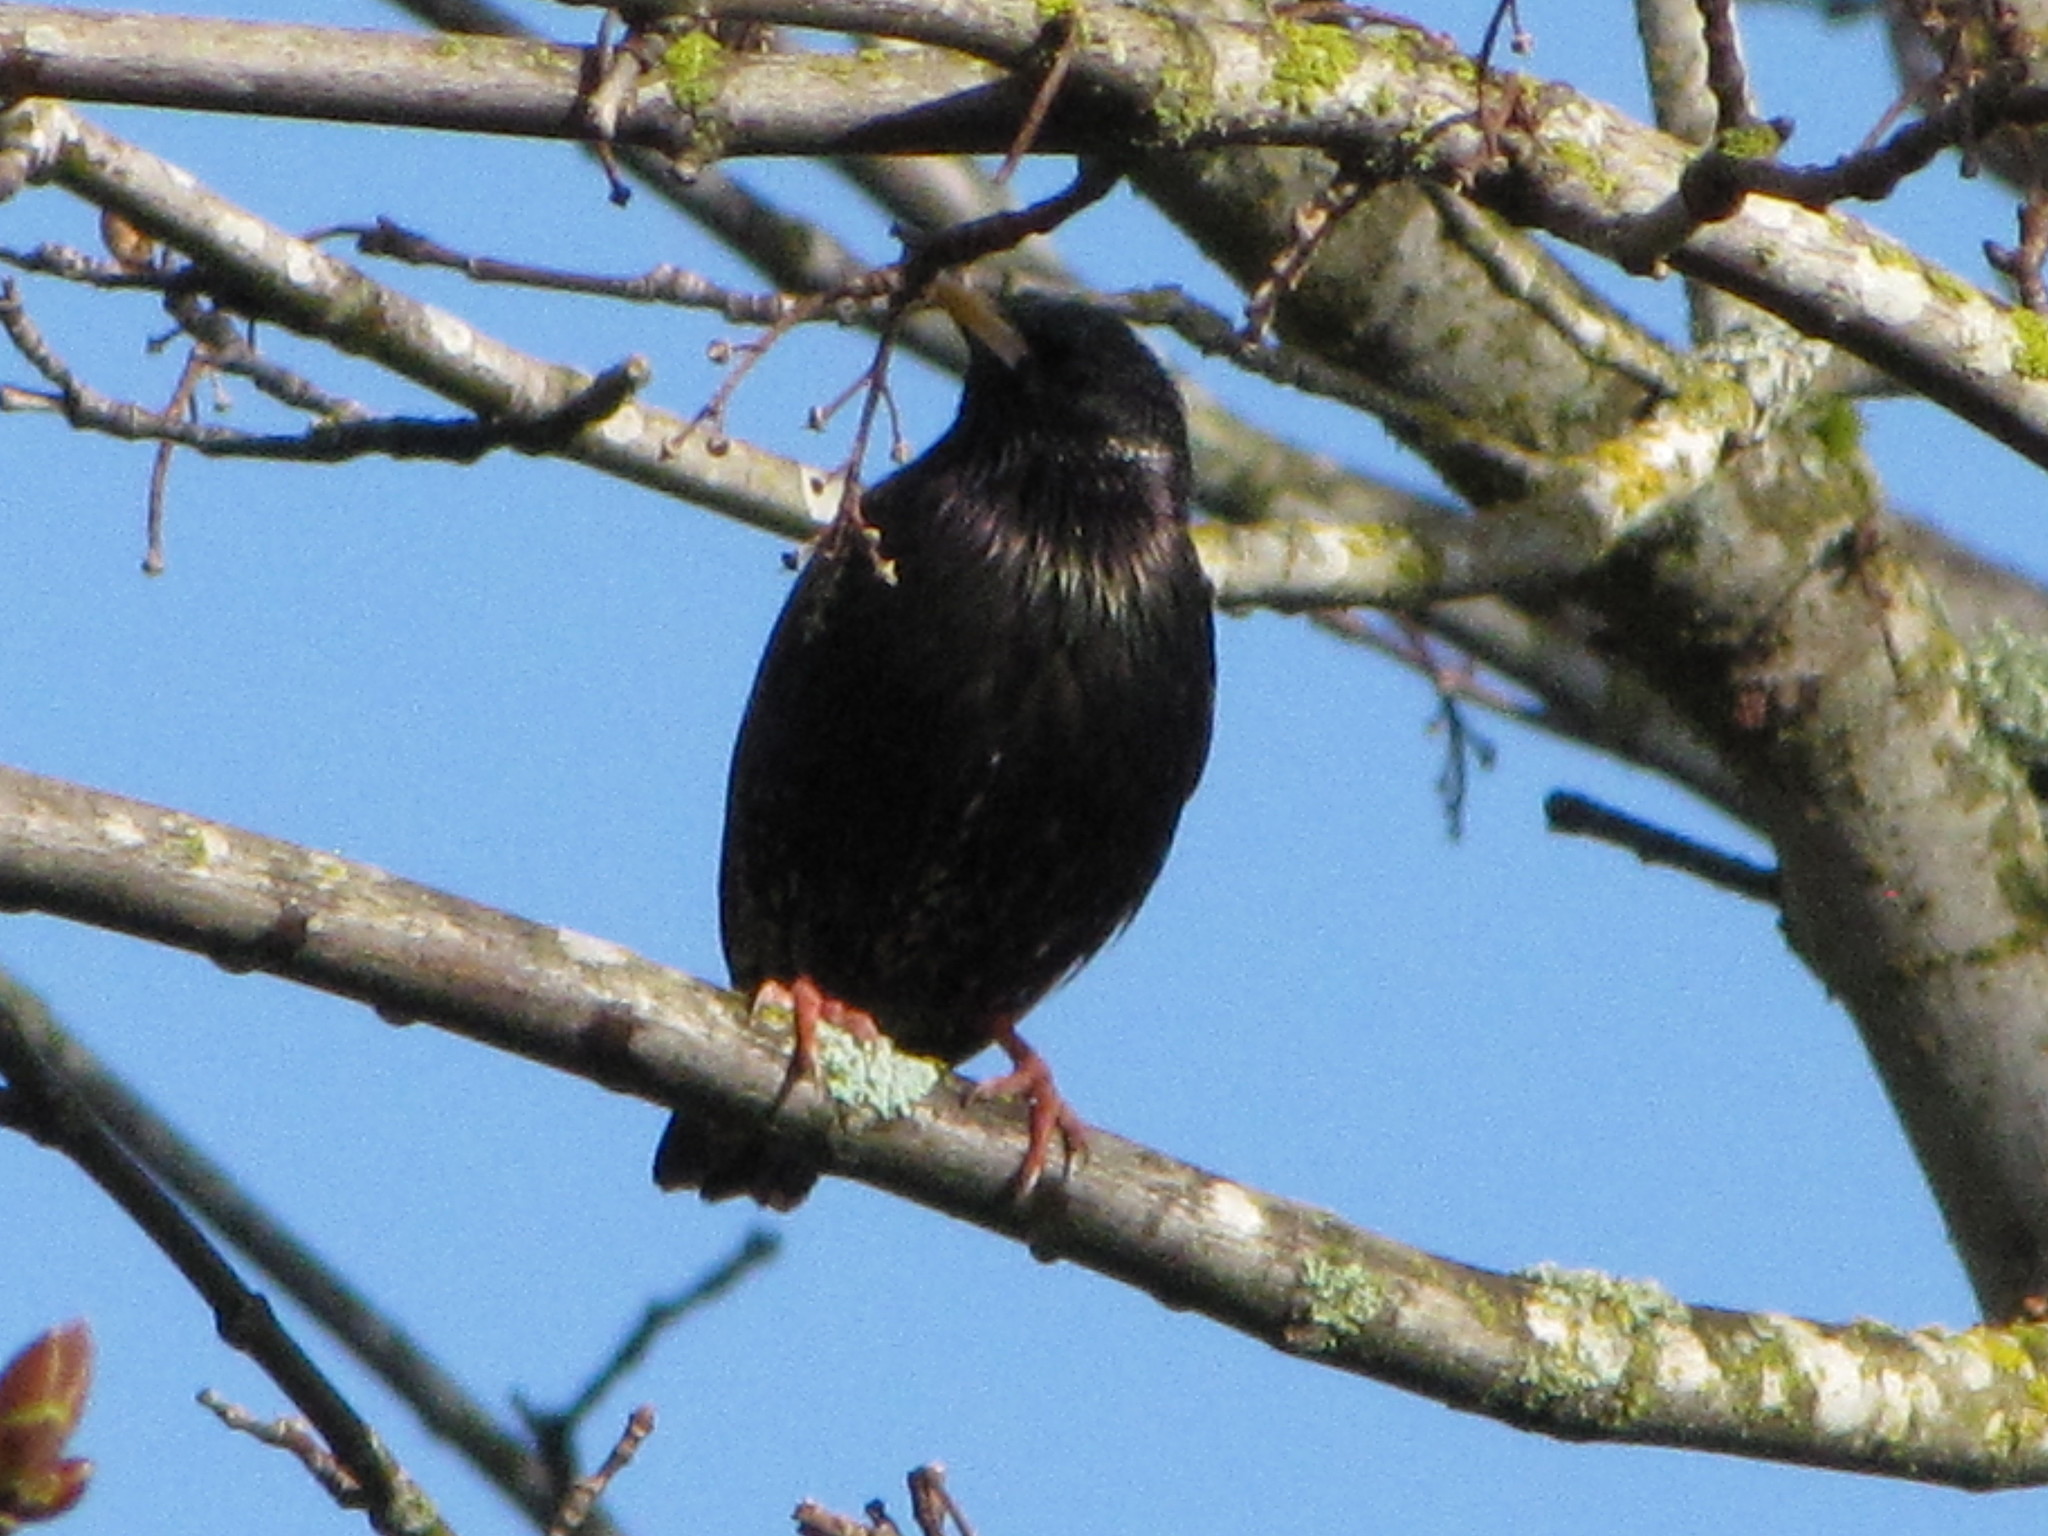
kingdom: Animalia
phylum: Chordata
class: Aves
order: Passeriformes
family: Sturnidae
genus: Sturnus
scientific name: Sturnus vulgaris
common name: Common starling
